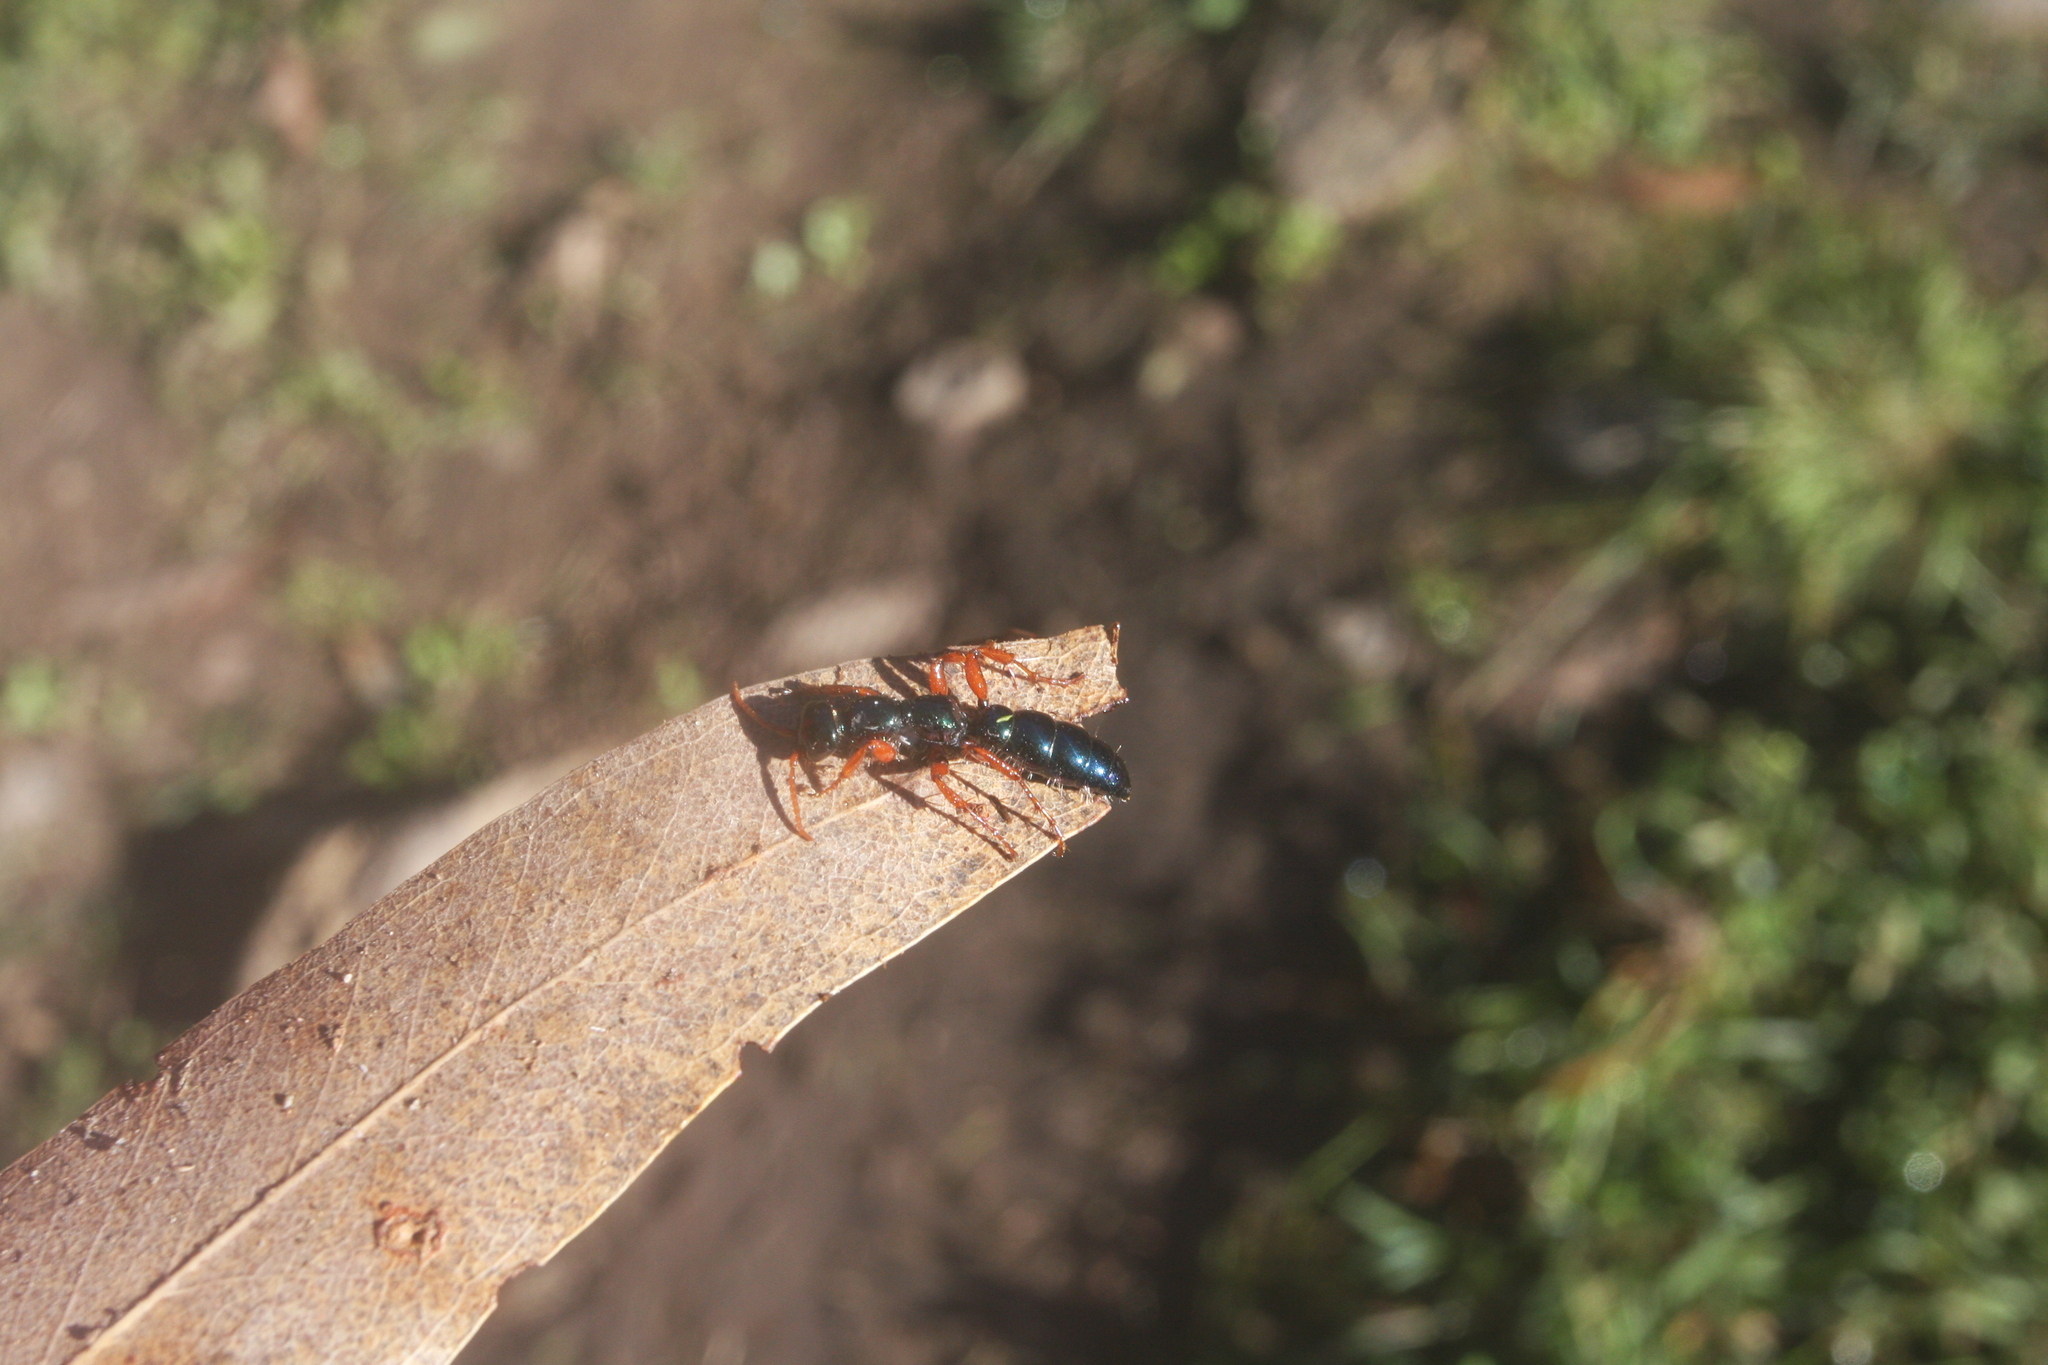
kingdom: Animalia
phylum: Arthropoda
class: Insecta
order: Hymenoptera
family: Tiphiidae
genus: Diamma
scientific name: Diamma
